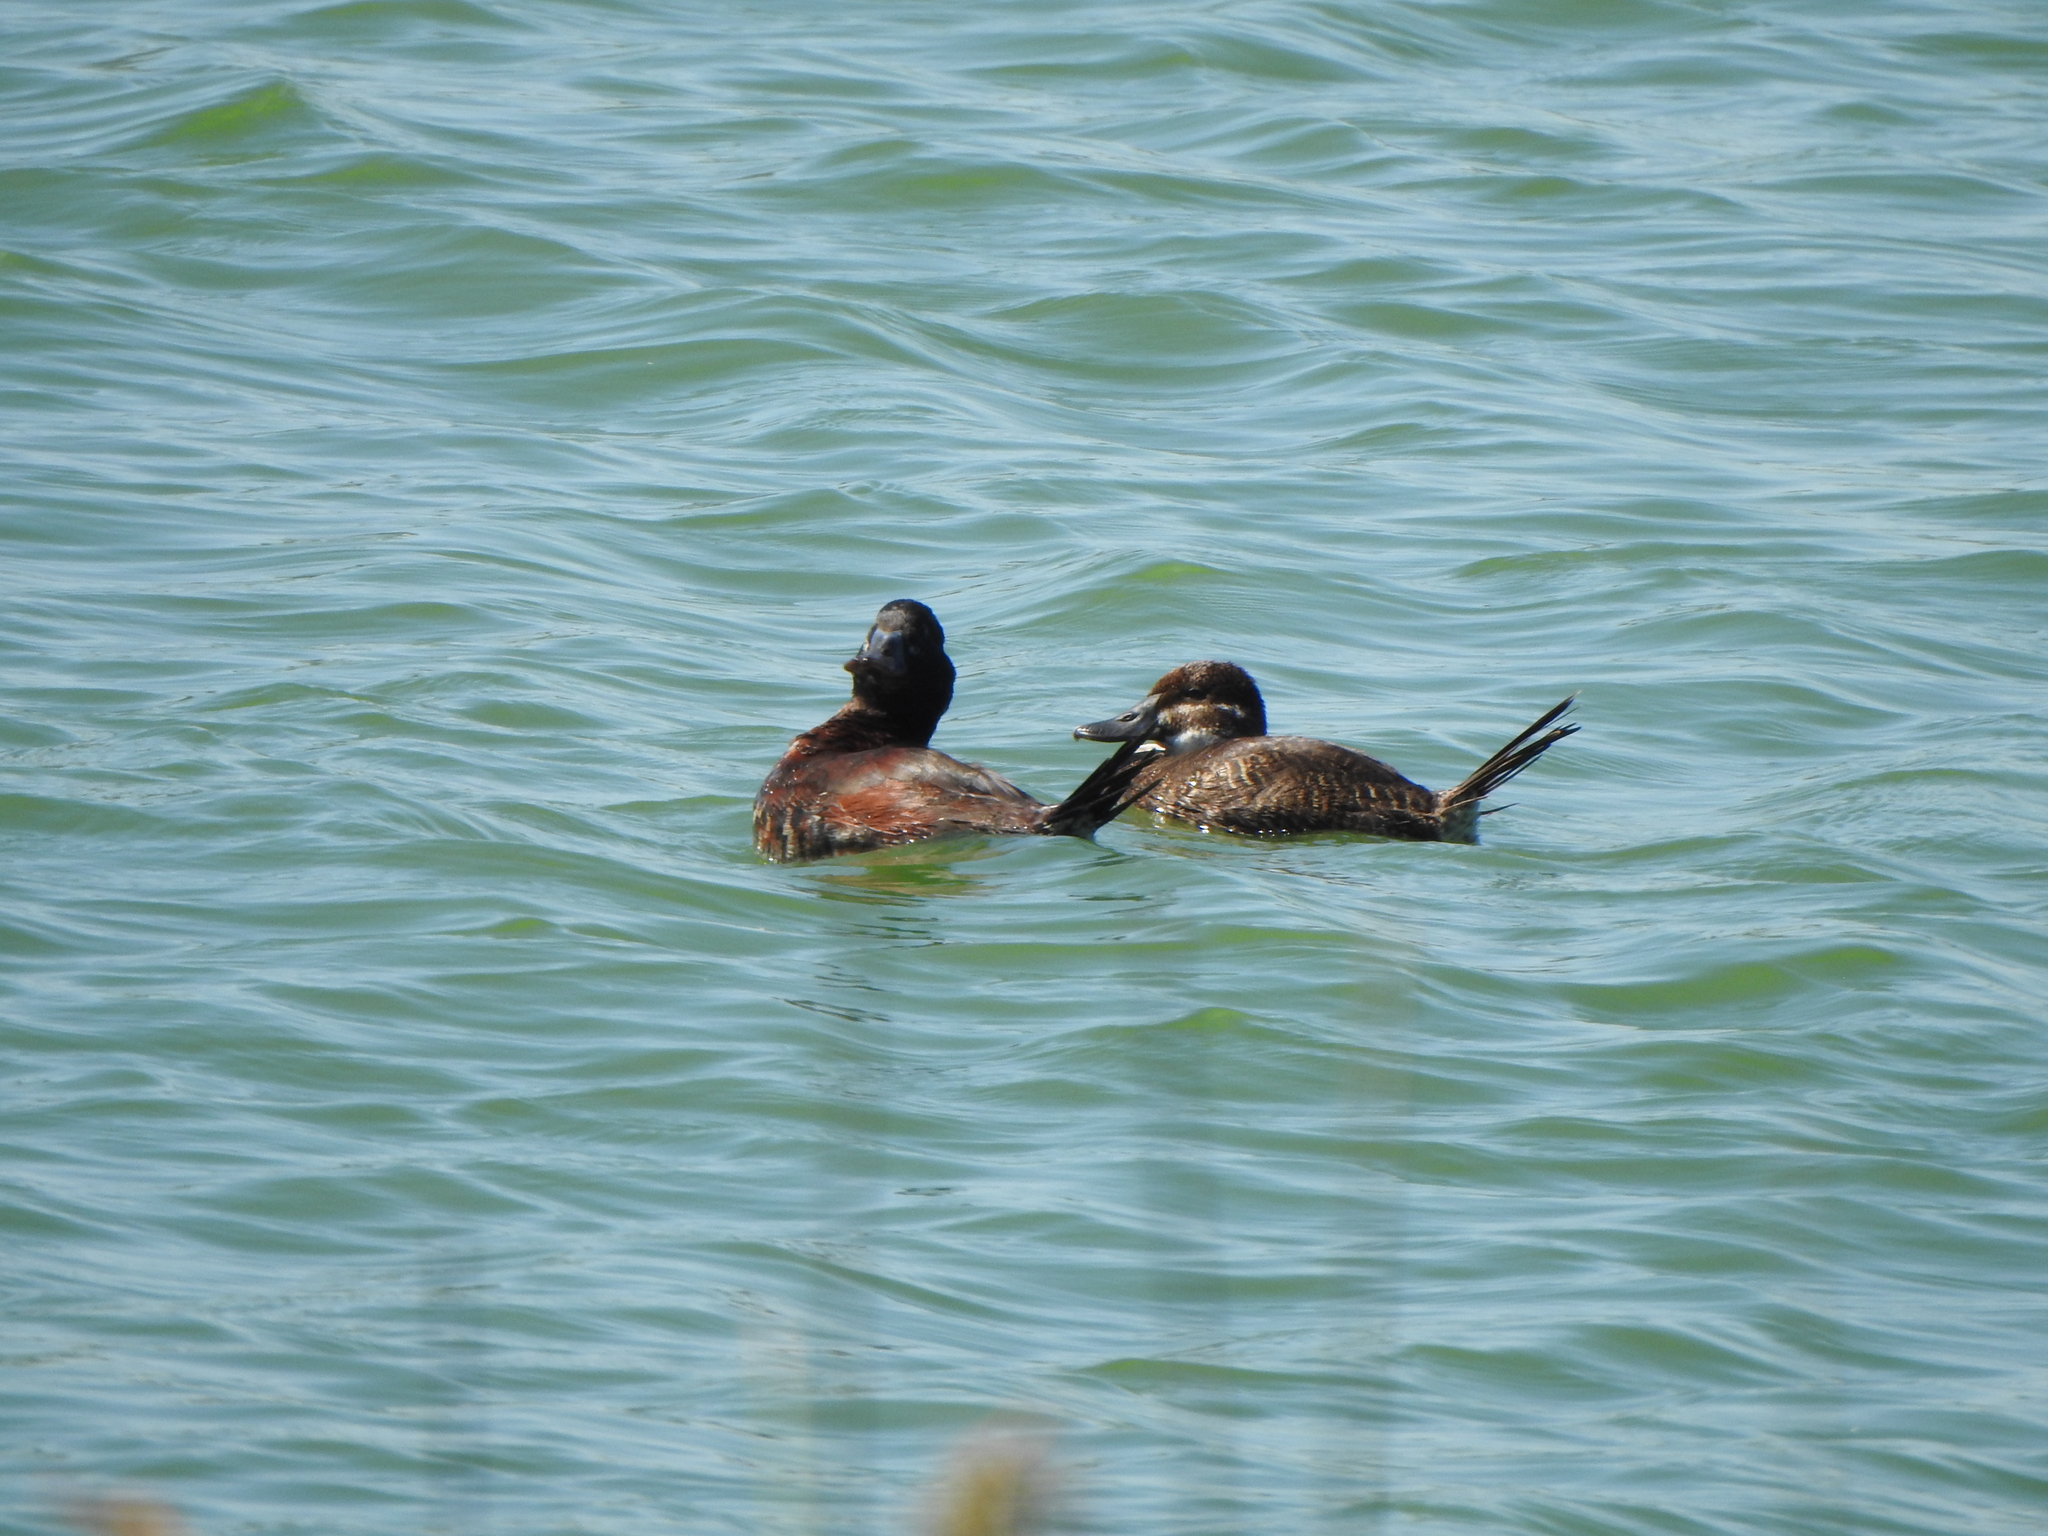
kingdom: Animalia
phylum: Chordata
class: Aves
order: Anseriformes
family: Anatidae
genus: Oxyura
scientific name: Oxyura vittata
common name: Lake duck
